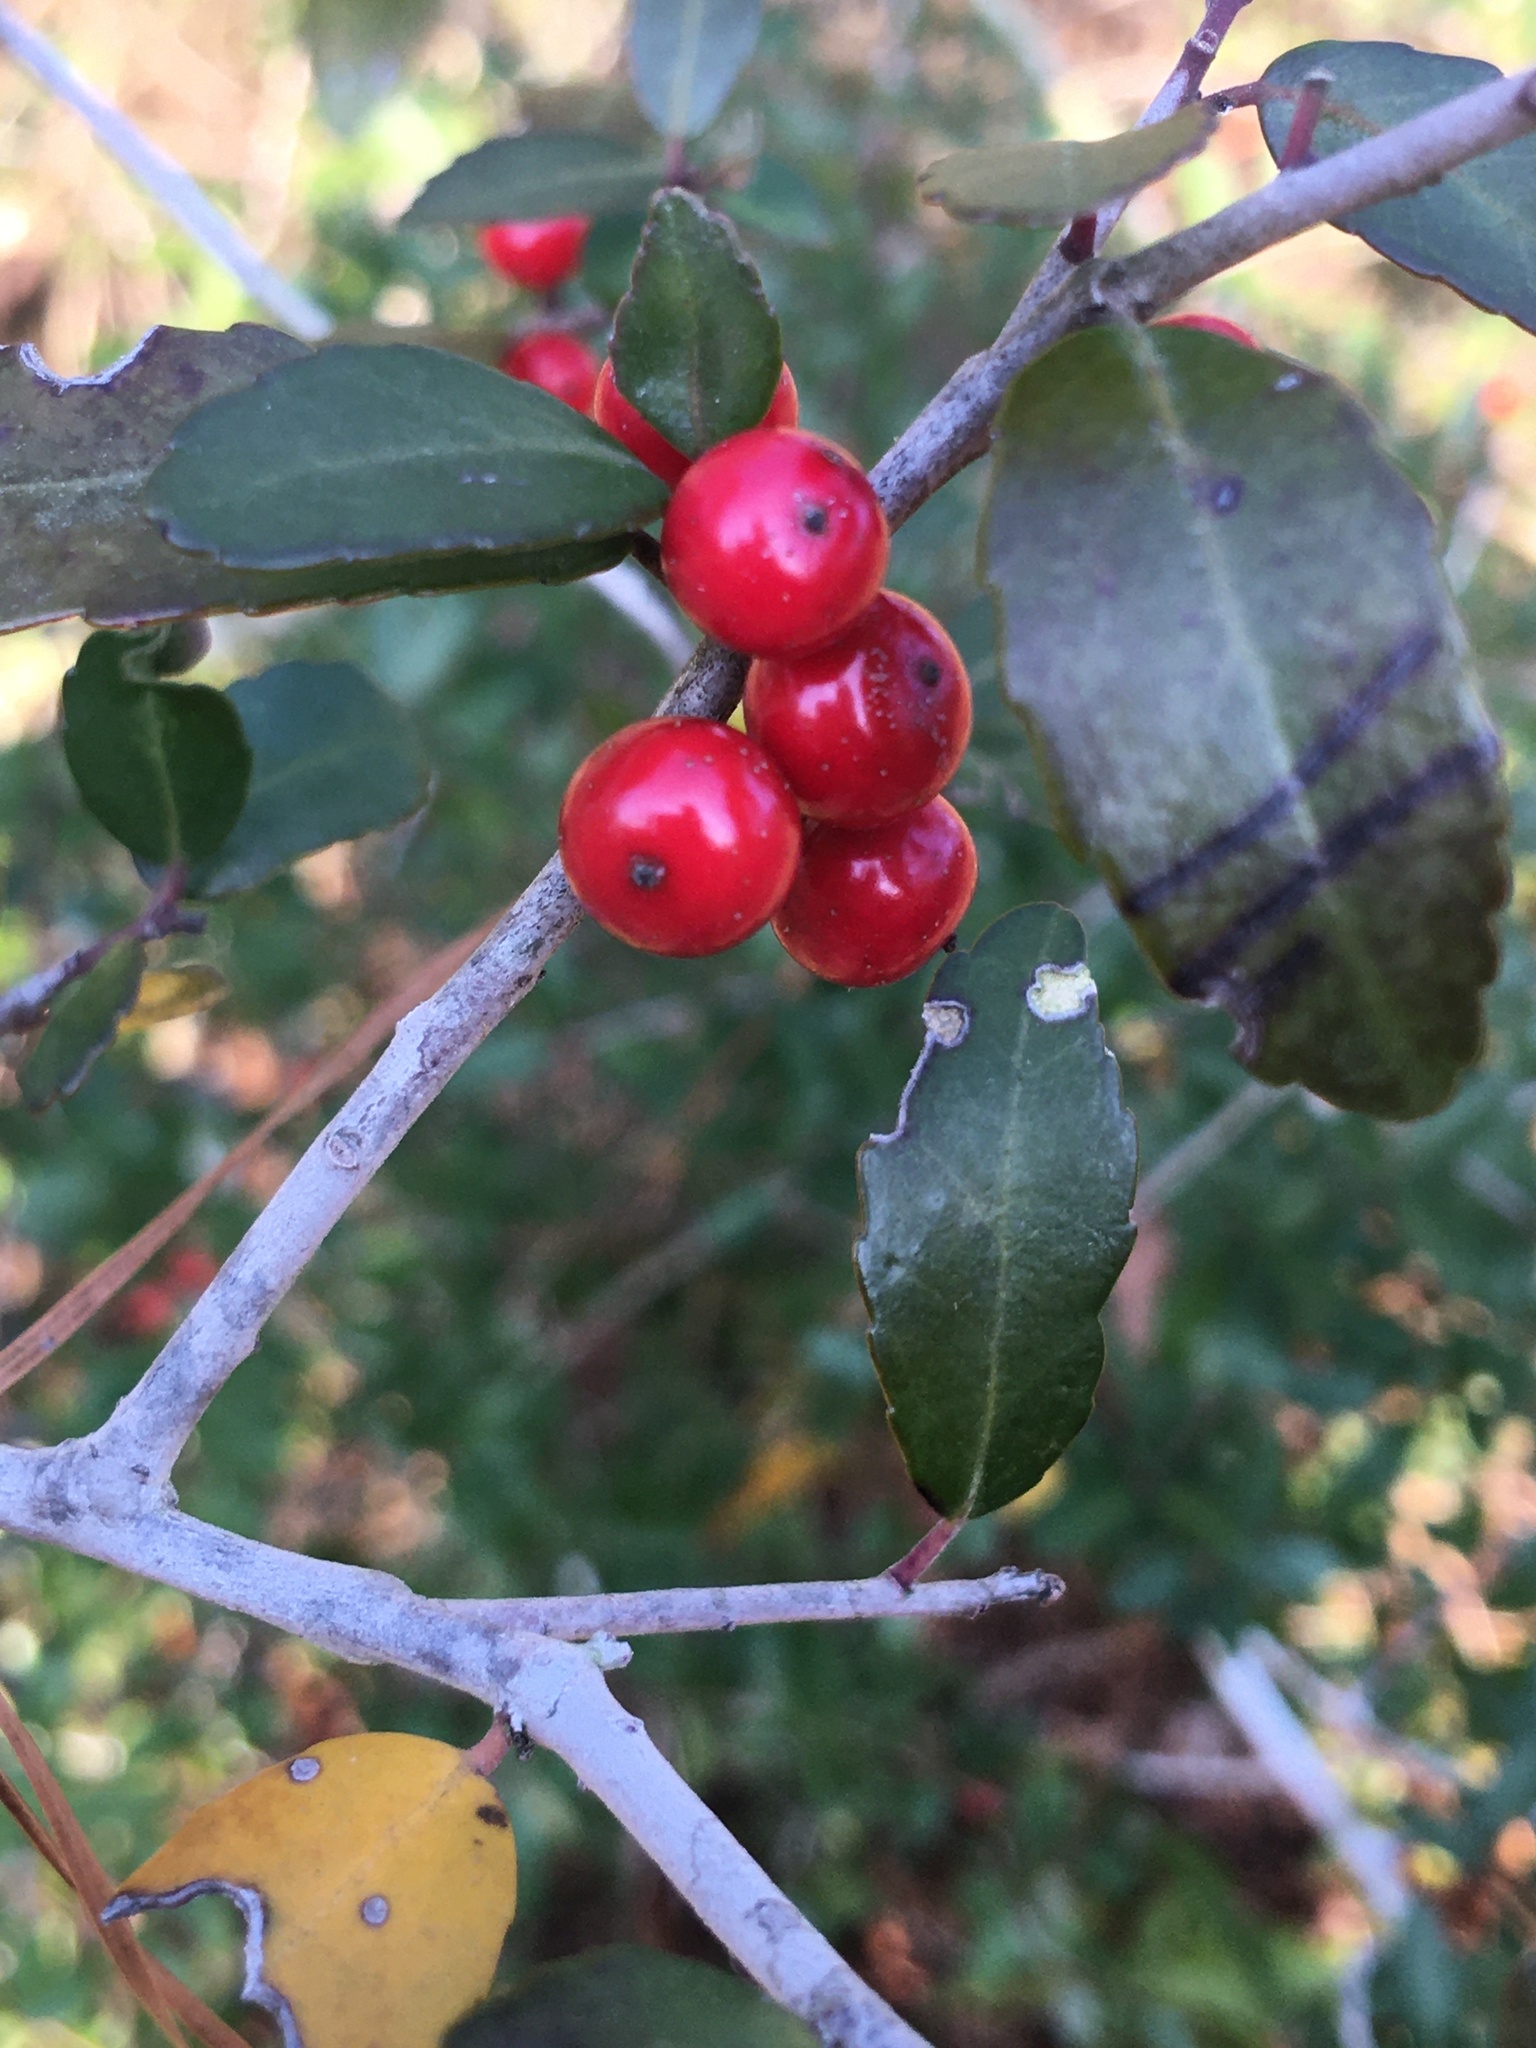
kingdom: Plantae
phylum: Tracheophyta
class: Magnoliopsida
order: Aquifoliales
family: Aquifoliaceae
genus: Ilex
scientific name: Ilex vomitoria
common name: Yaupon holly
